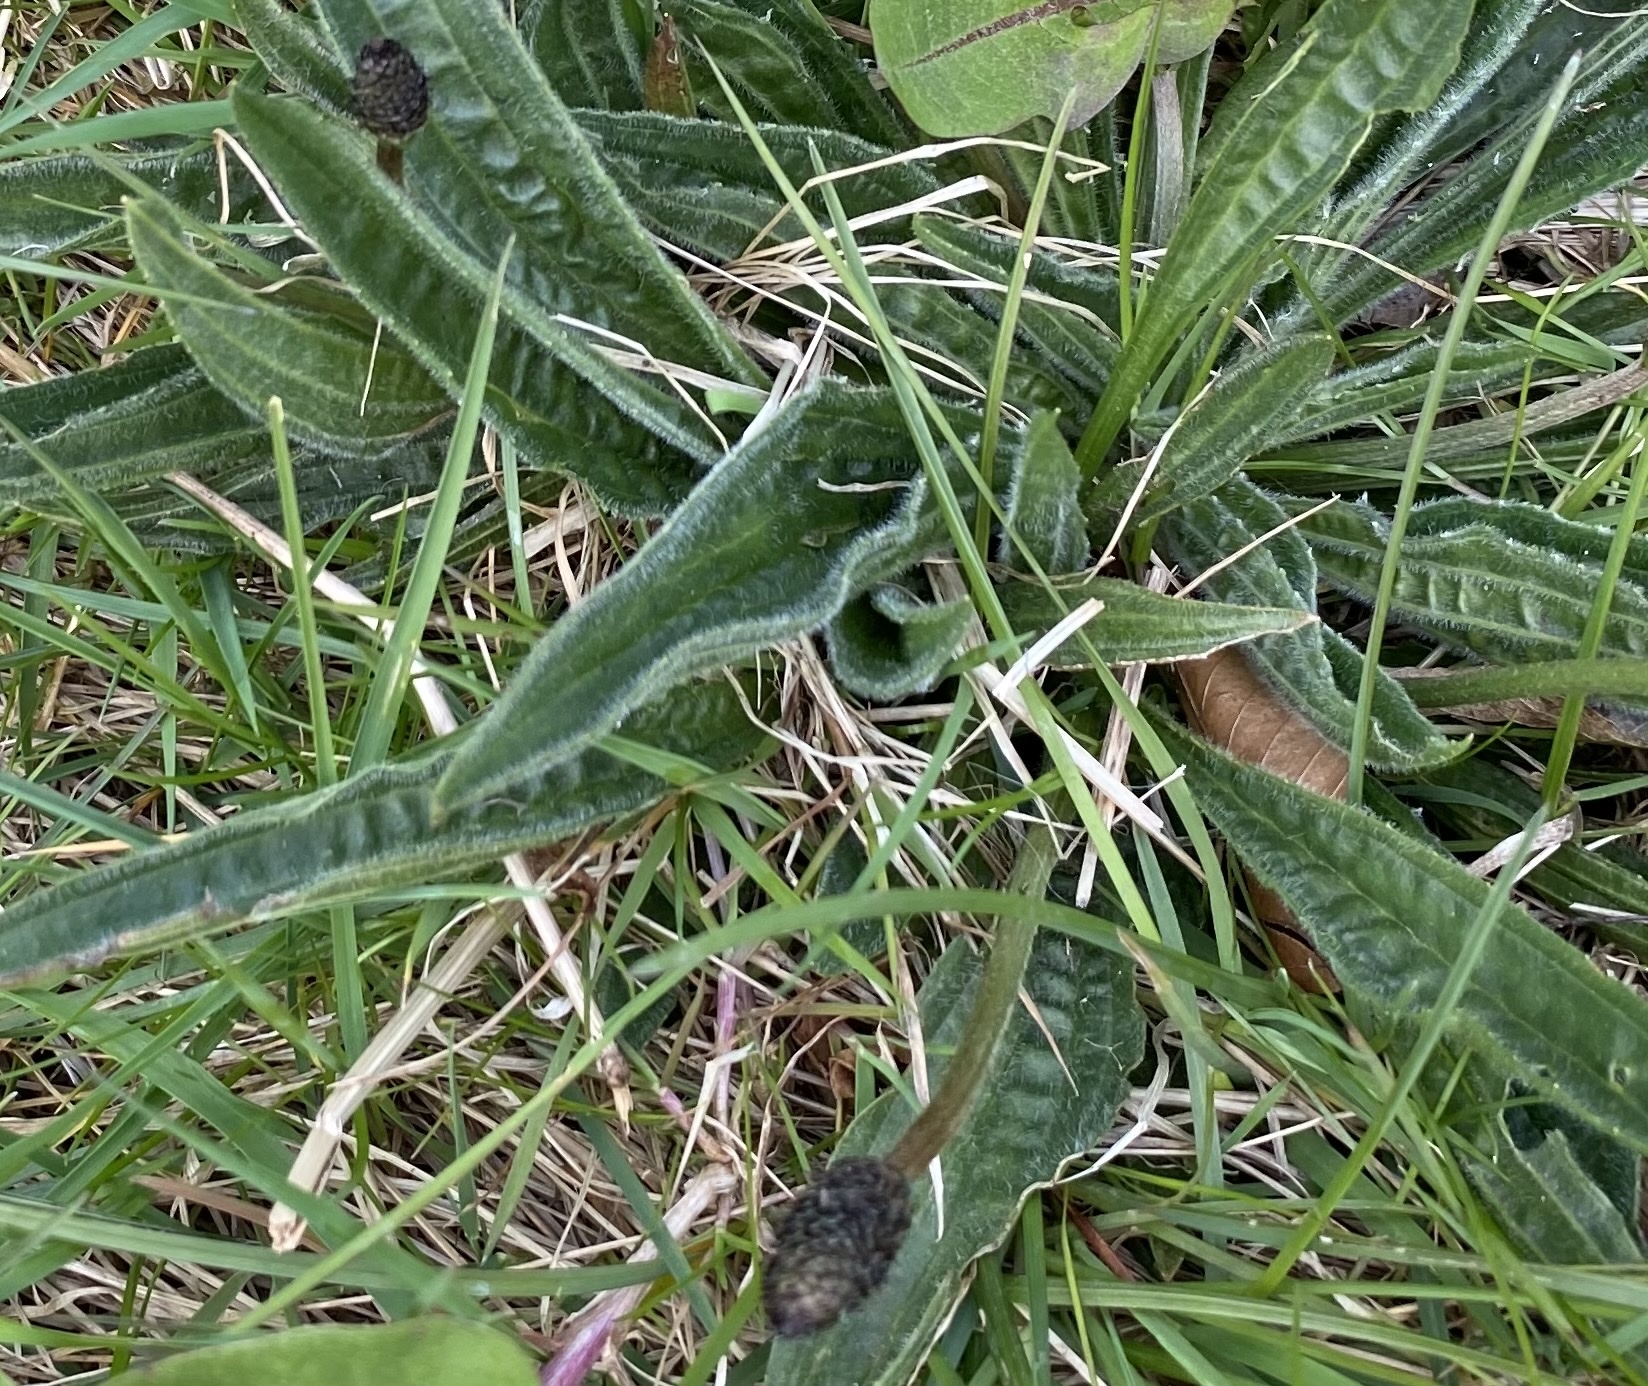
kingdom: Plantae
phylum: Tracheophyta
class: Magnoliopsida
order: Lamiales
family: Plantaginaceae
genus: Plantago
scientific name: Plantago lanceolata
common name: Ribwort plantain
